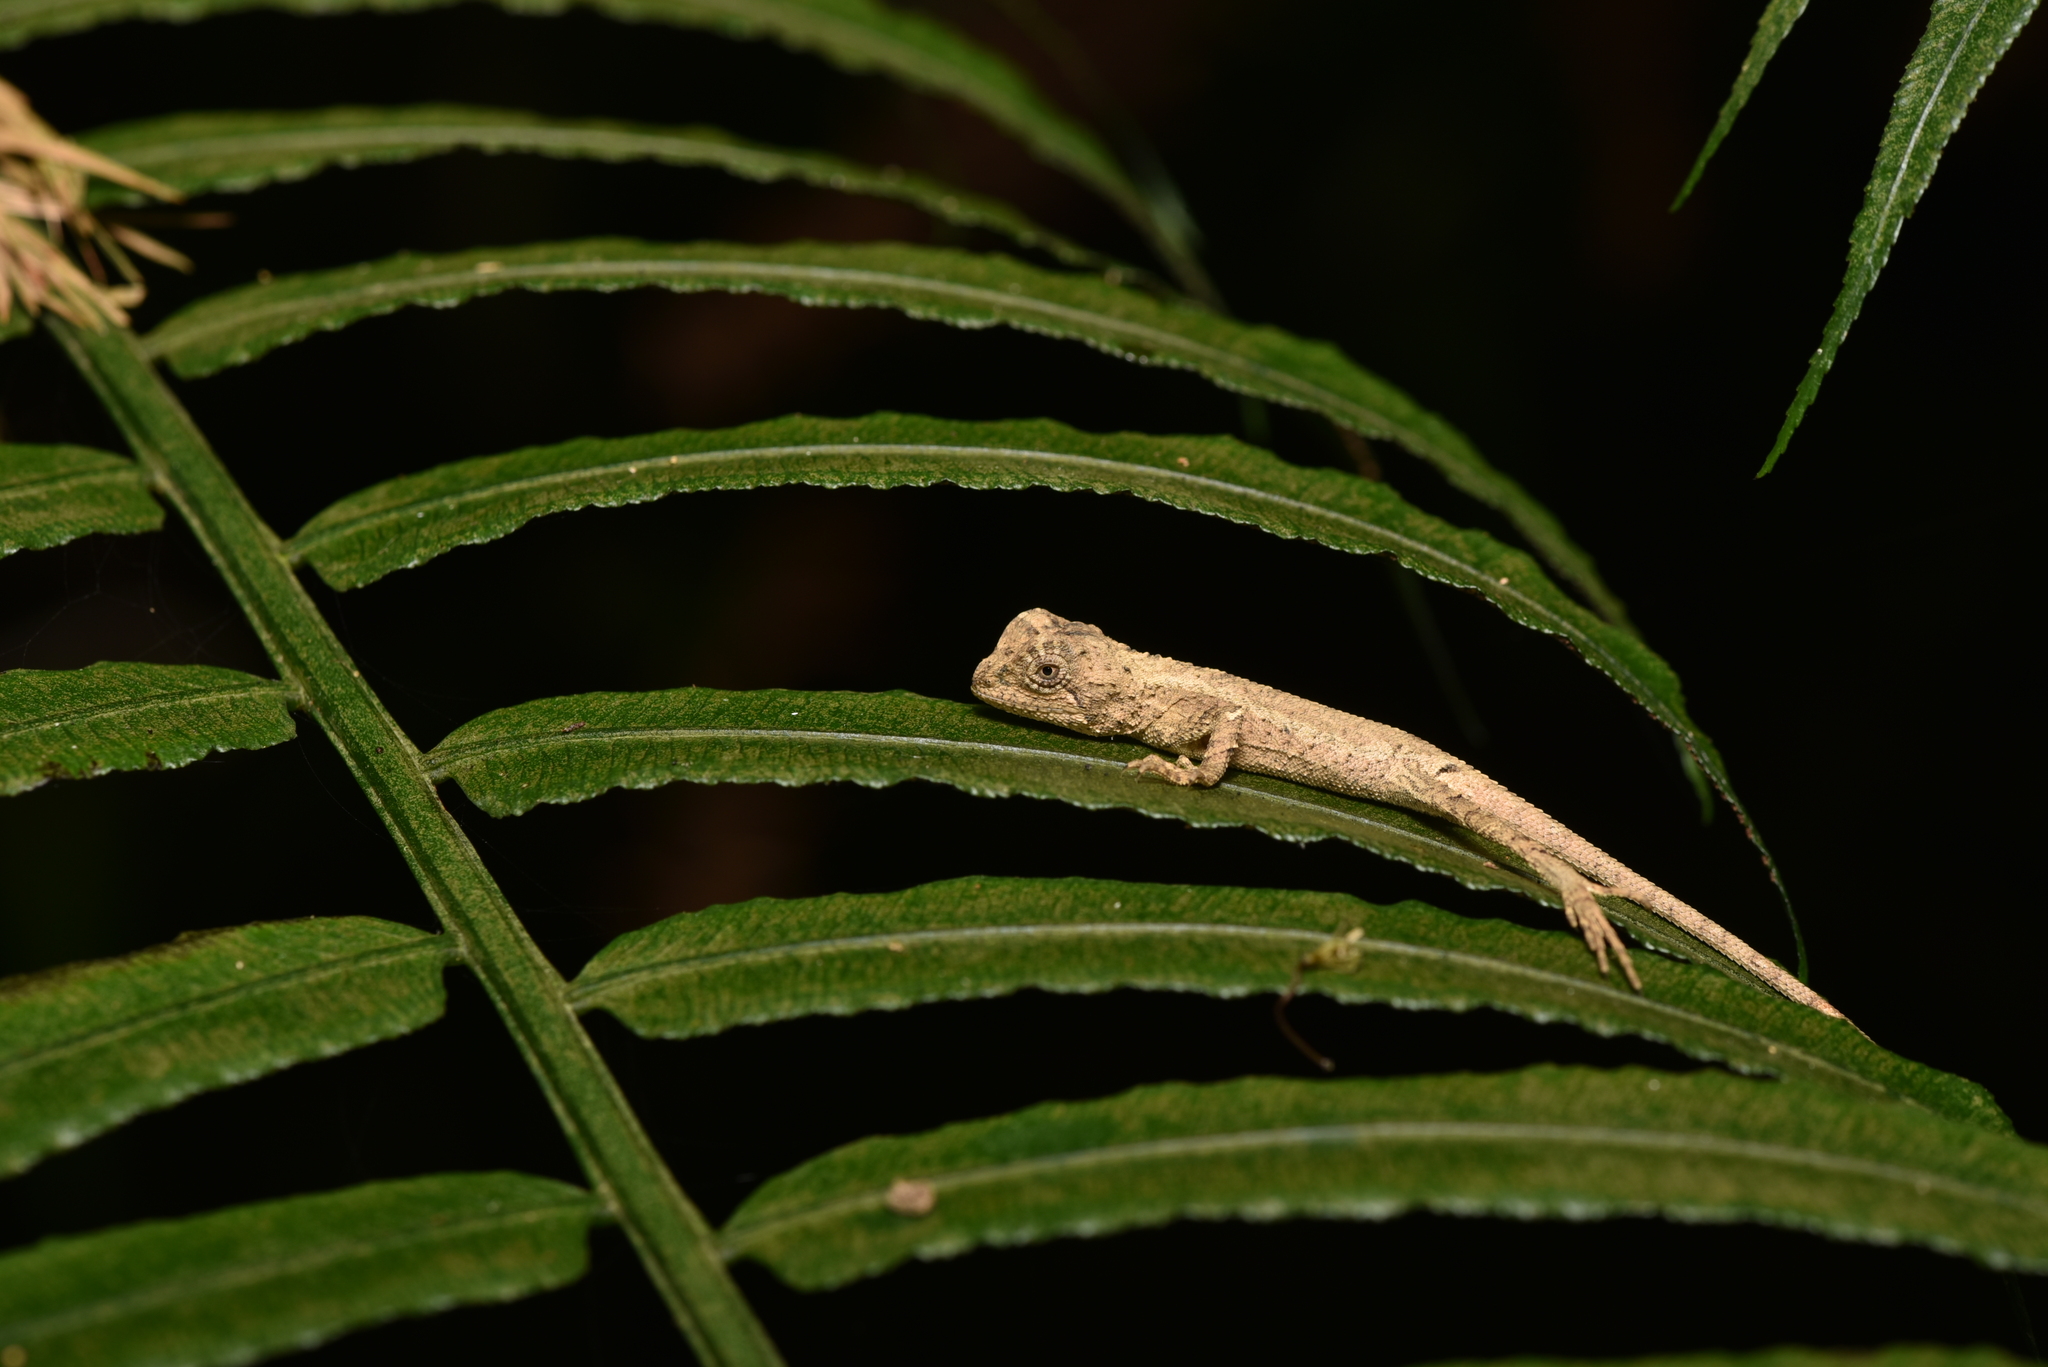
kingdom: Animalia
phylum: Chordata
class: Squamata
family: Agamidae
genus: Diploderma
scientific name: Diploderma swinhonis
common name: Taiwan japalure
